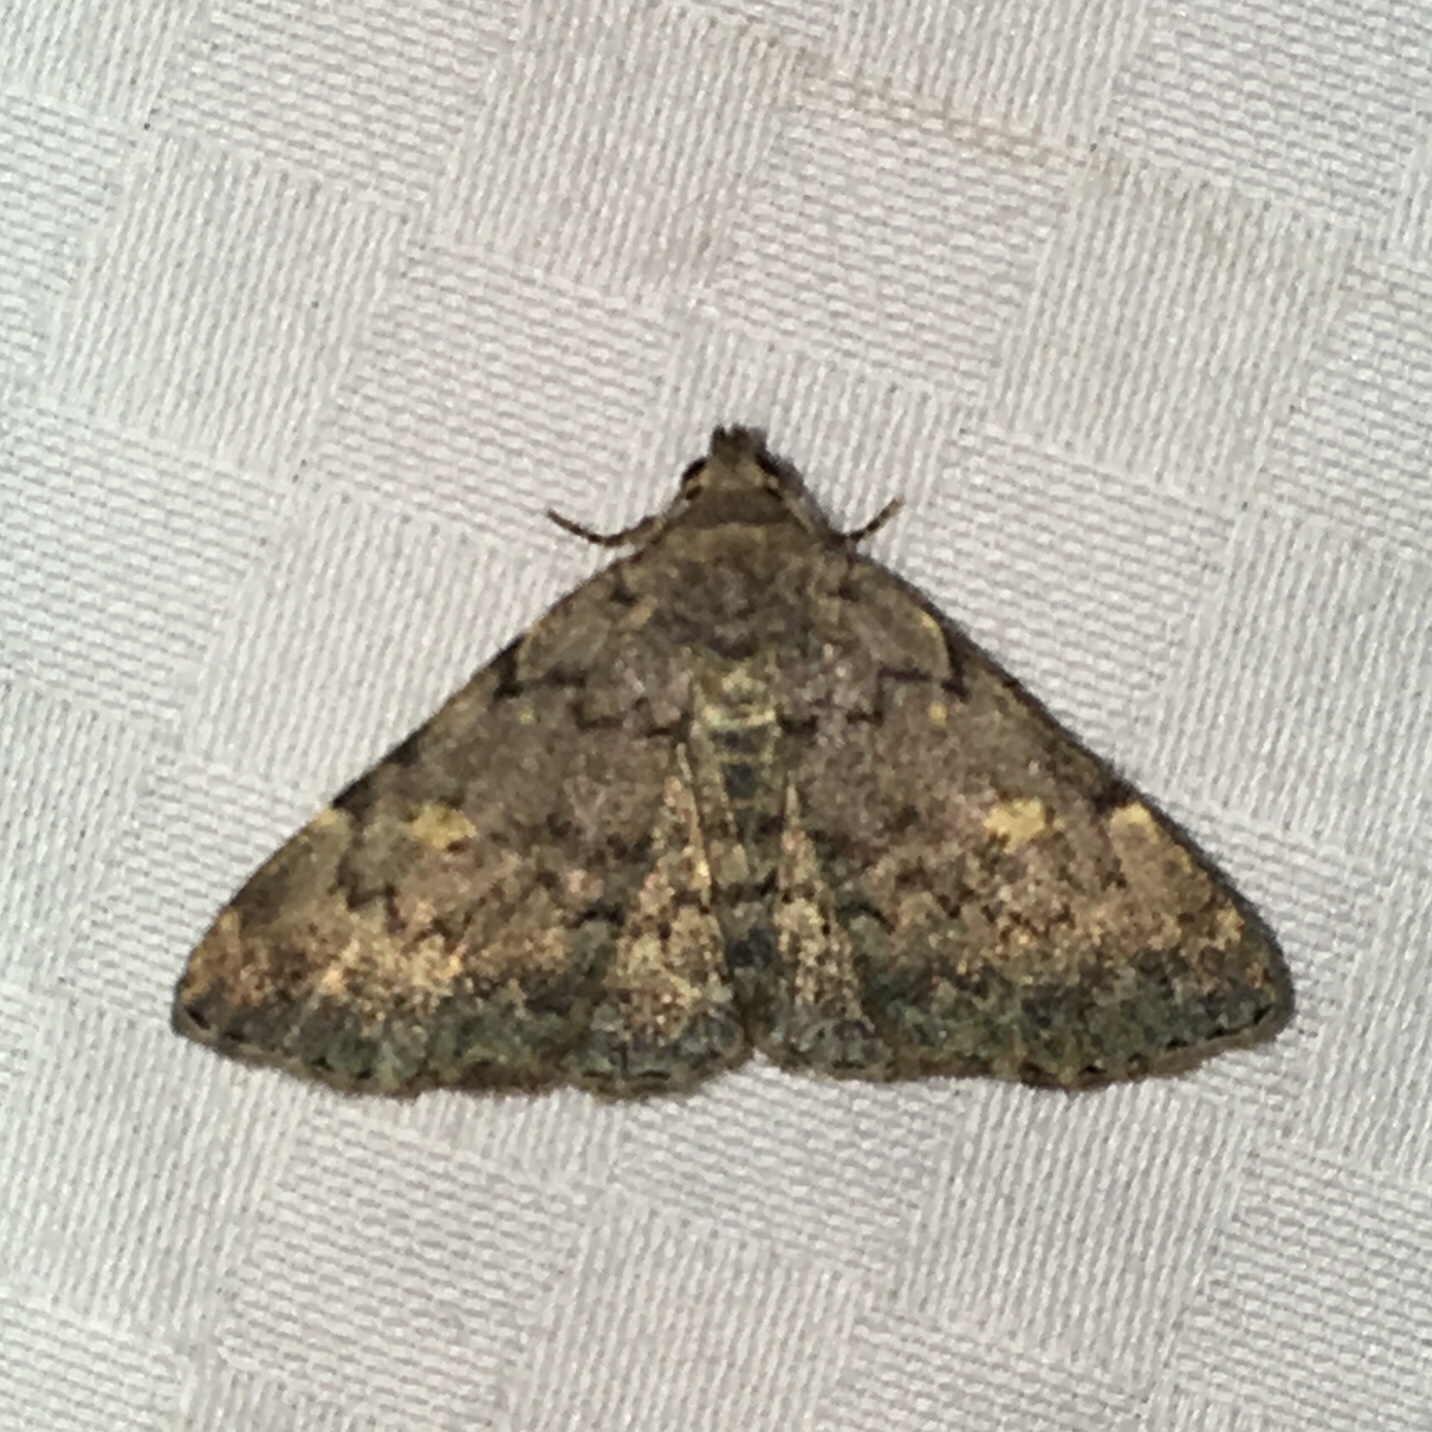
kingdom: Animalia
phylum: Arthropoda
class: Insecta
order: Lepidoptera
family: Erebidae
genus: Idia
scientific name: Idia aemula
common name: Common idia moth
